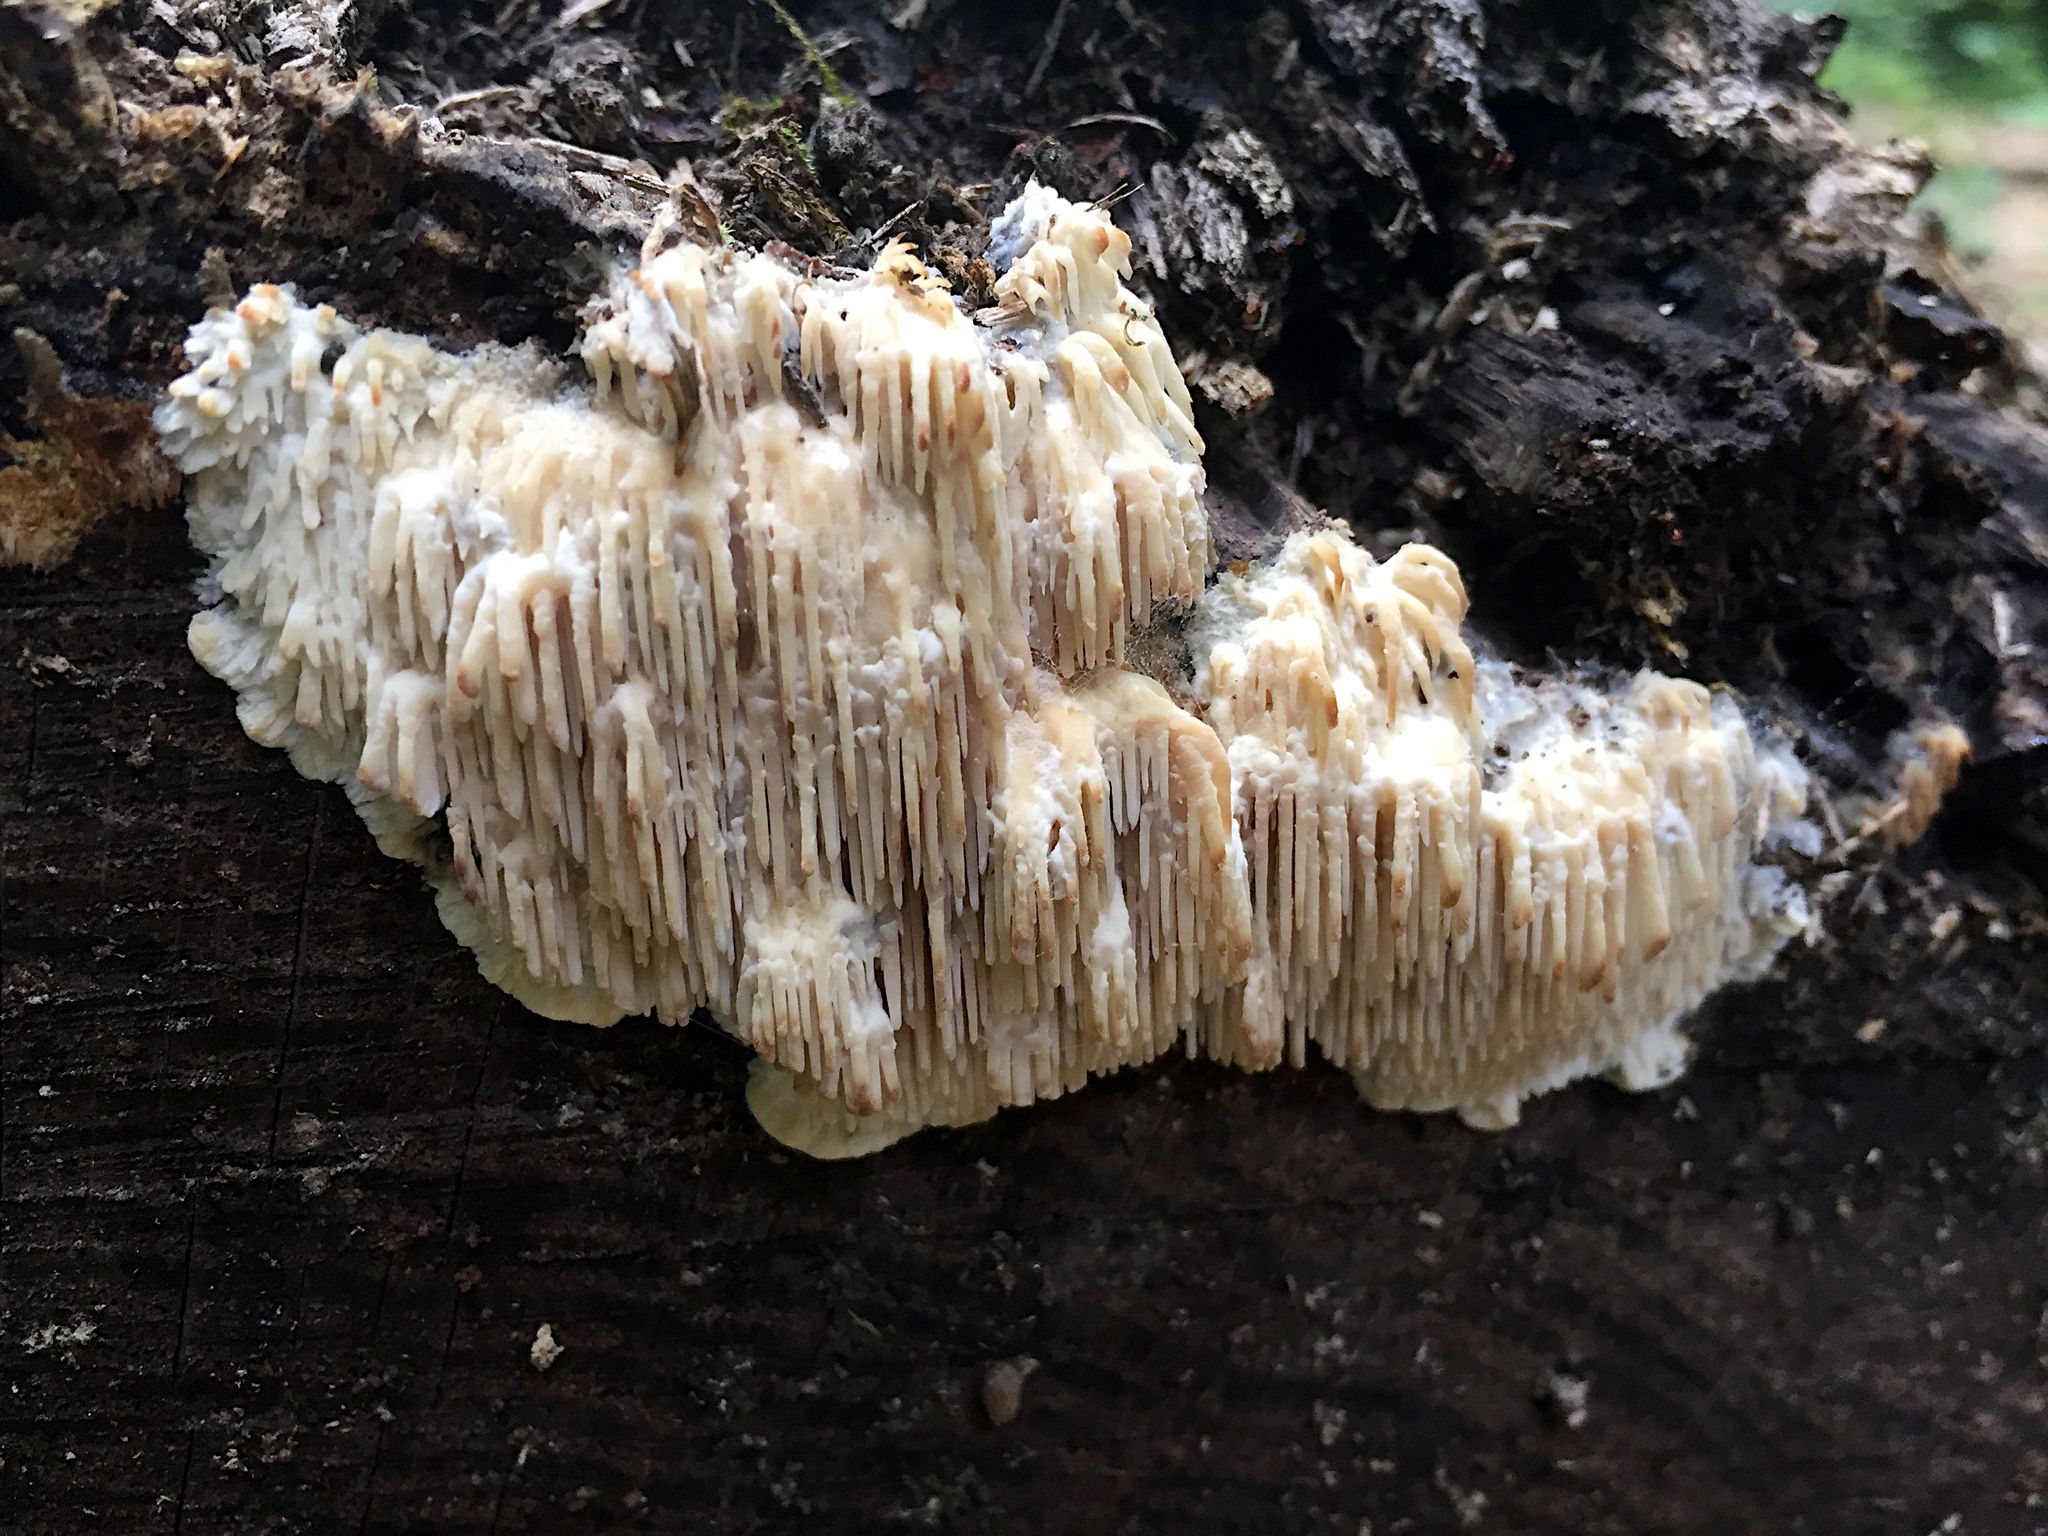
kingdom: Fungi
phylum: Basidiomycota
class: Agaricomycetes
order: Agaricales
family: Radulomycetaceae
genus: Radulomyces
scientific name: Radulomyces copelandii
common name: Asian beauty
